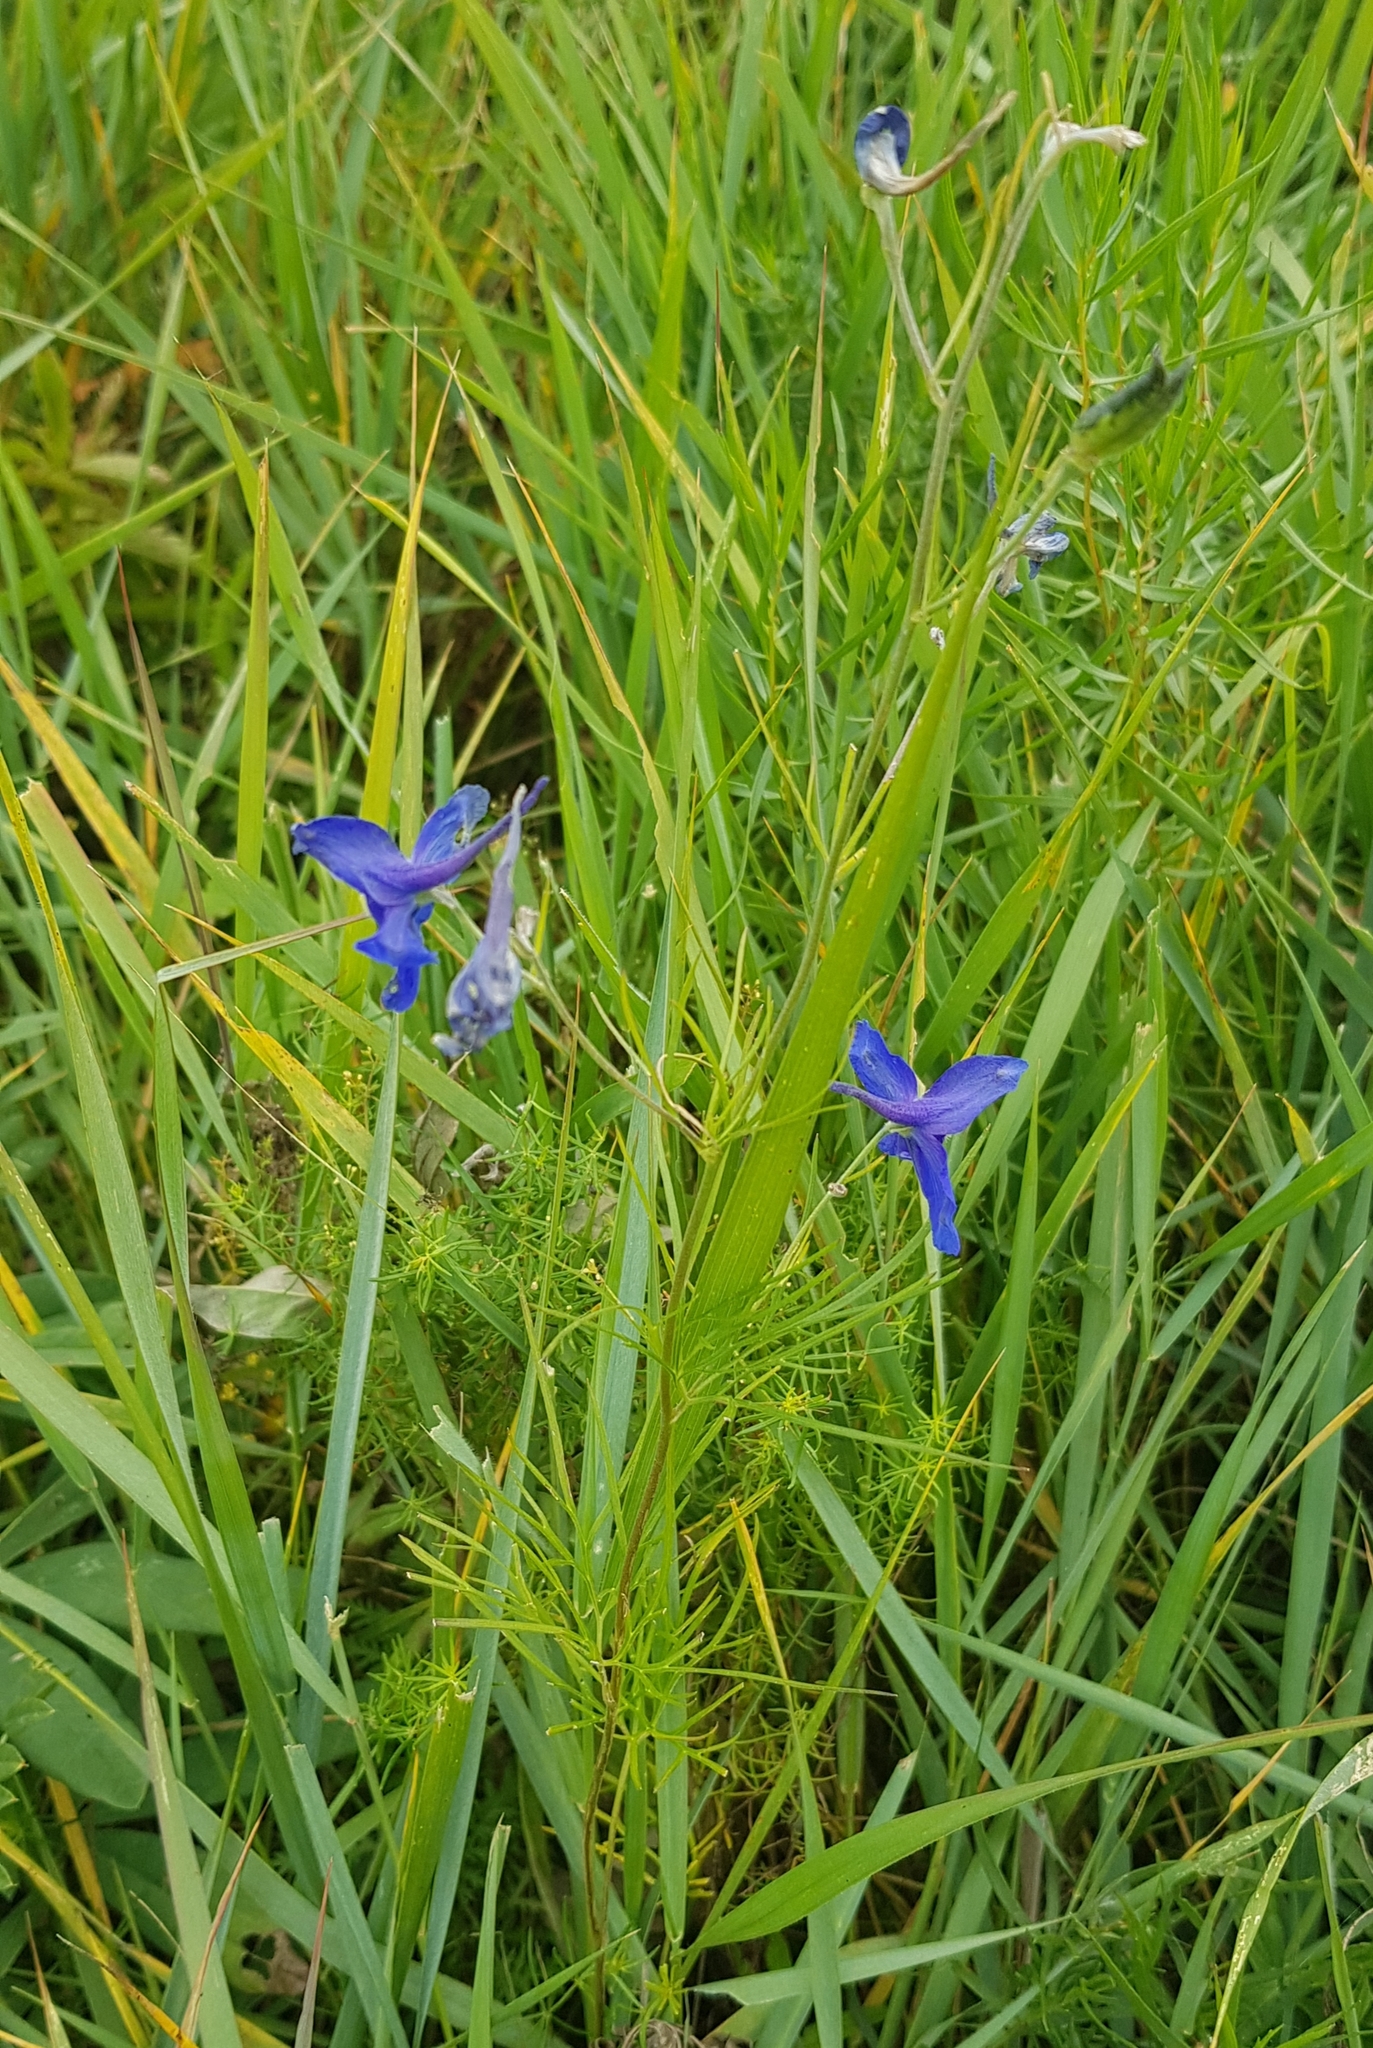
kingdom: Plantae
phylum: Tracheophyta
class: Magnoliopsida
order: Ranunculales
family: Ranunculaceae
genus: Delphinium
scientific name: Delphinium grandiflorum
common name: Siberian larkspur
